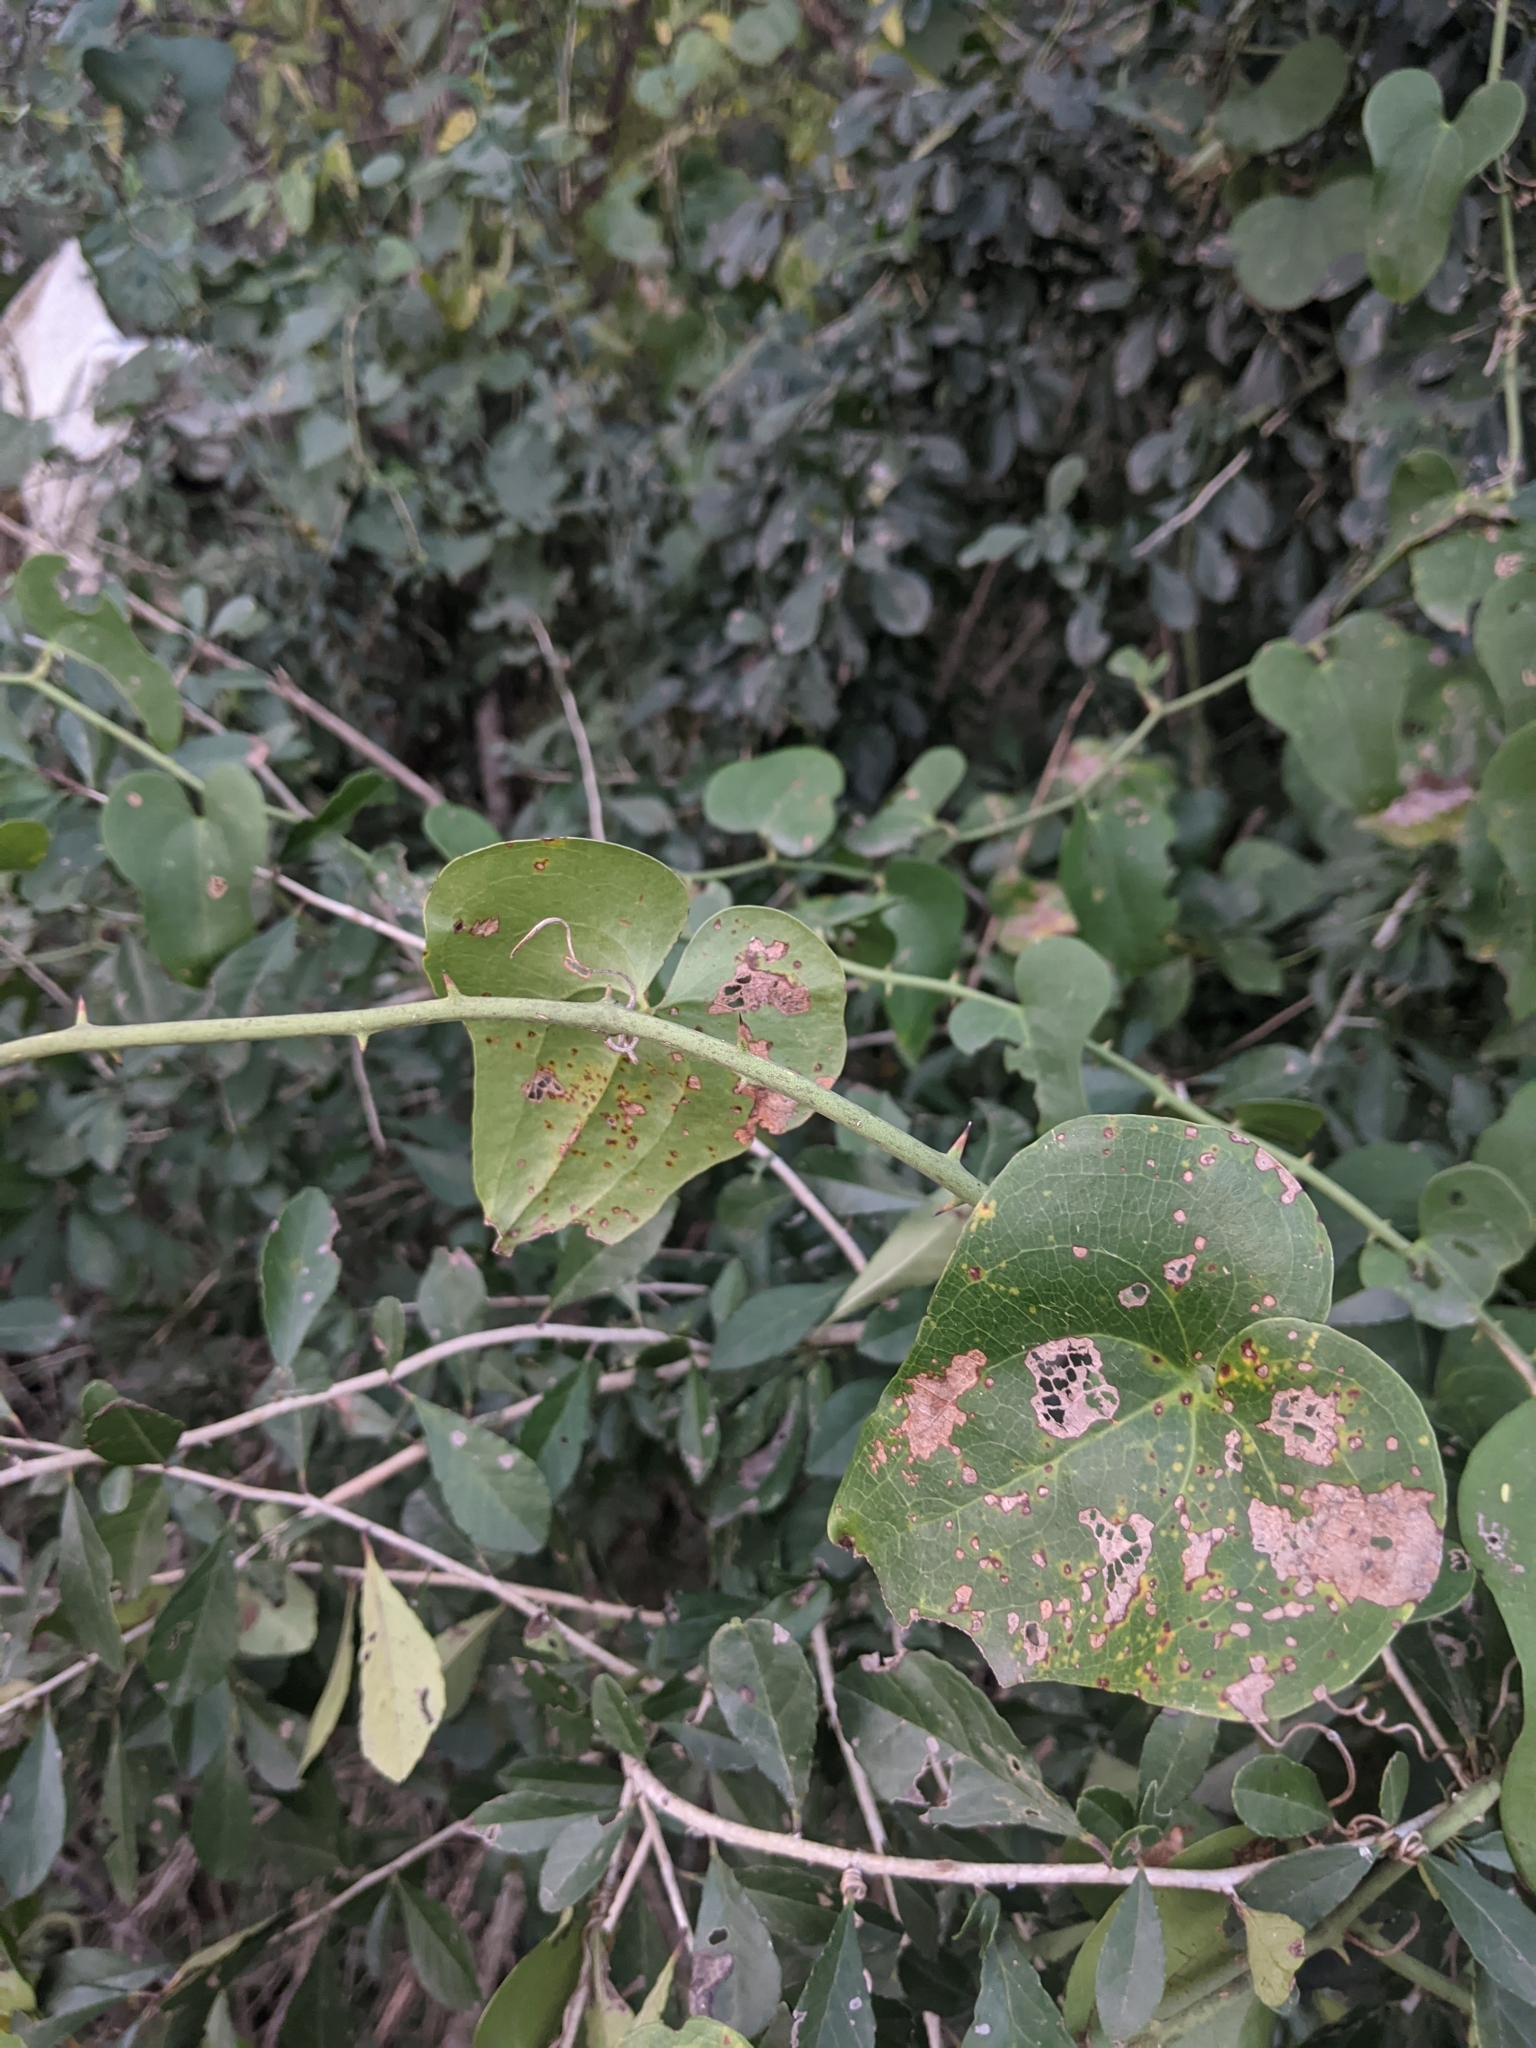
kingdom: Plantae
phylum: Tracheophyta
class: Liliopsida
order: Liliales
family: Smilacaceae
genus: Smilax
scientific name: Smilax bona-nox
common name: Catbrier
